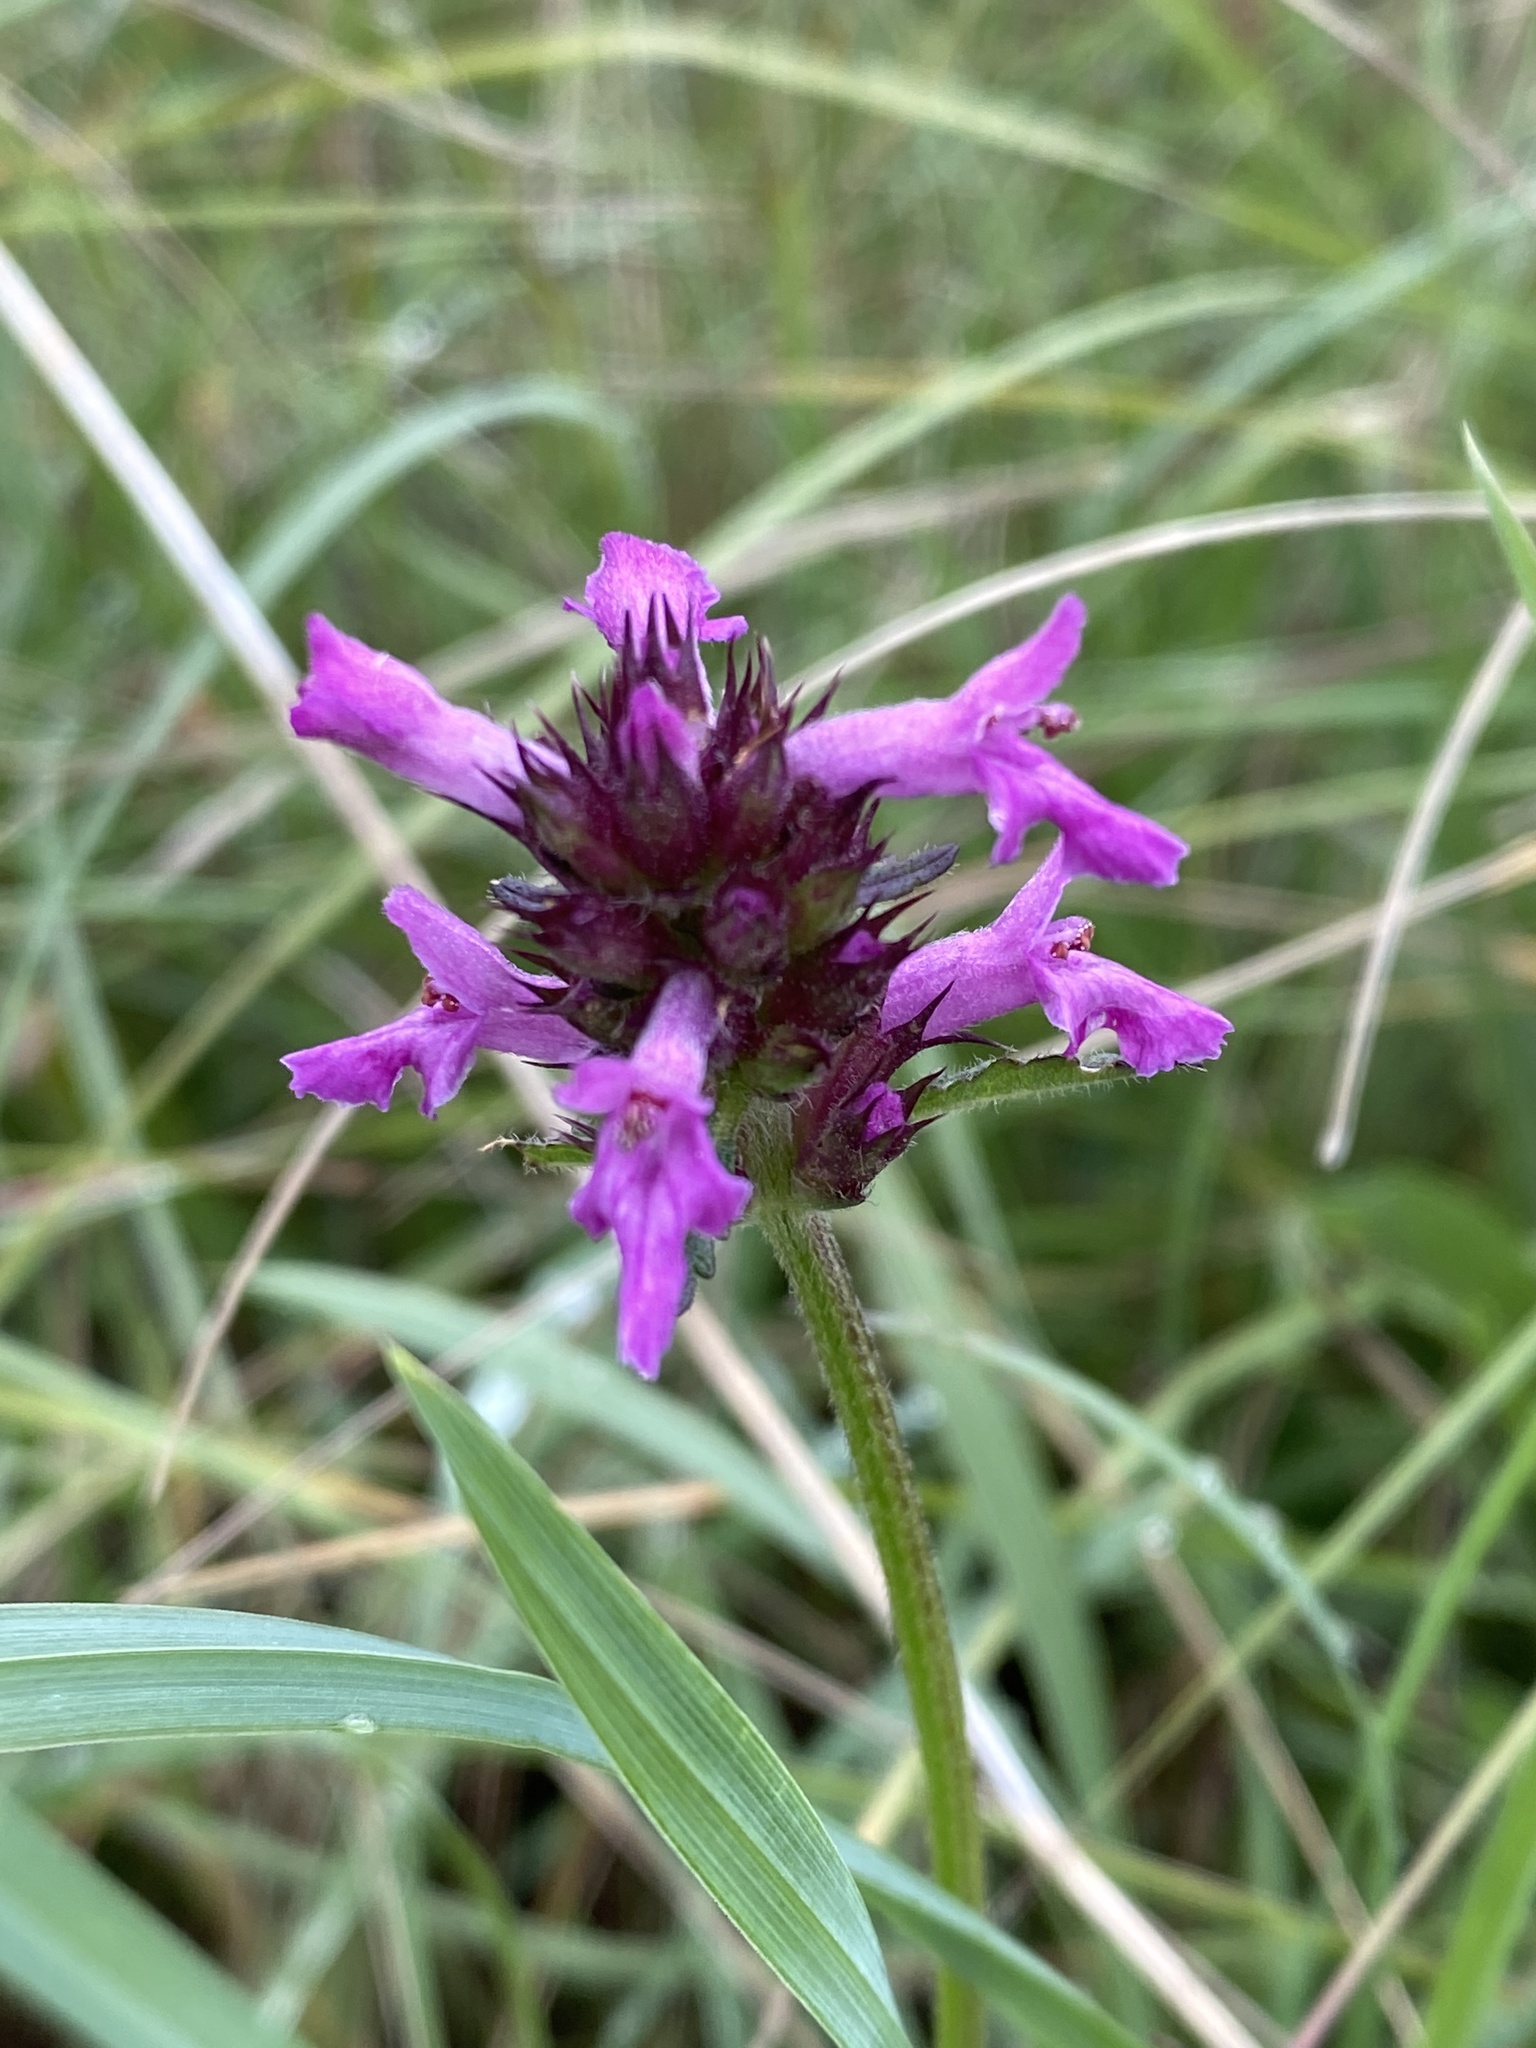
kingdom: Plantae
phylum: Tracheophyta
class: Magnoliopsida
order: Lamiales
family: Lamiaceae
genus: Betonica
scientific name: Betonica officinalis
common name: Bishop's-wort
